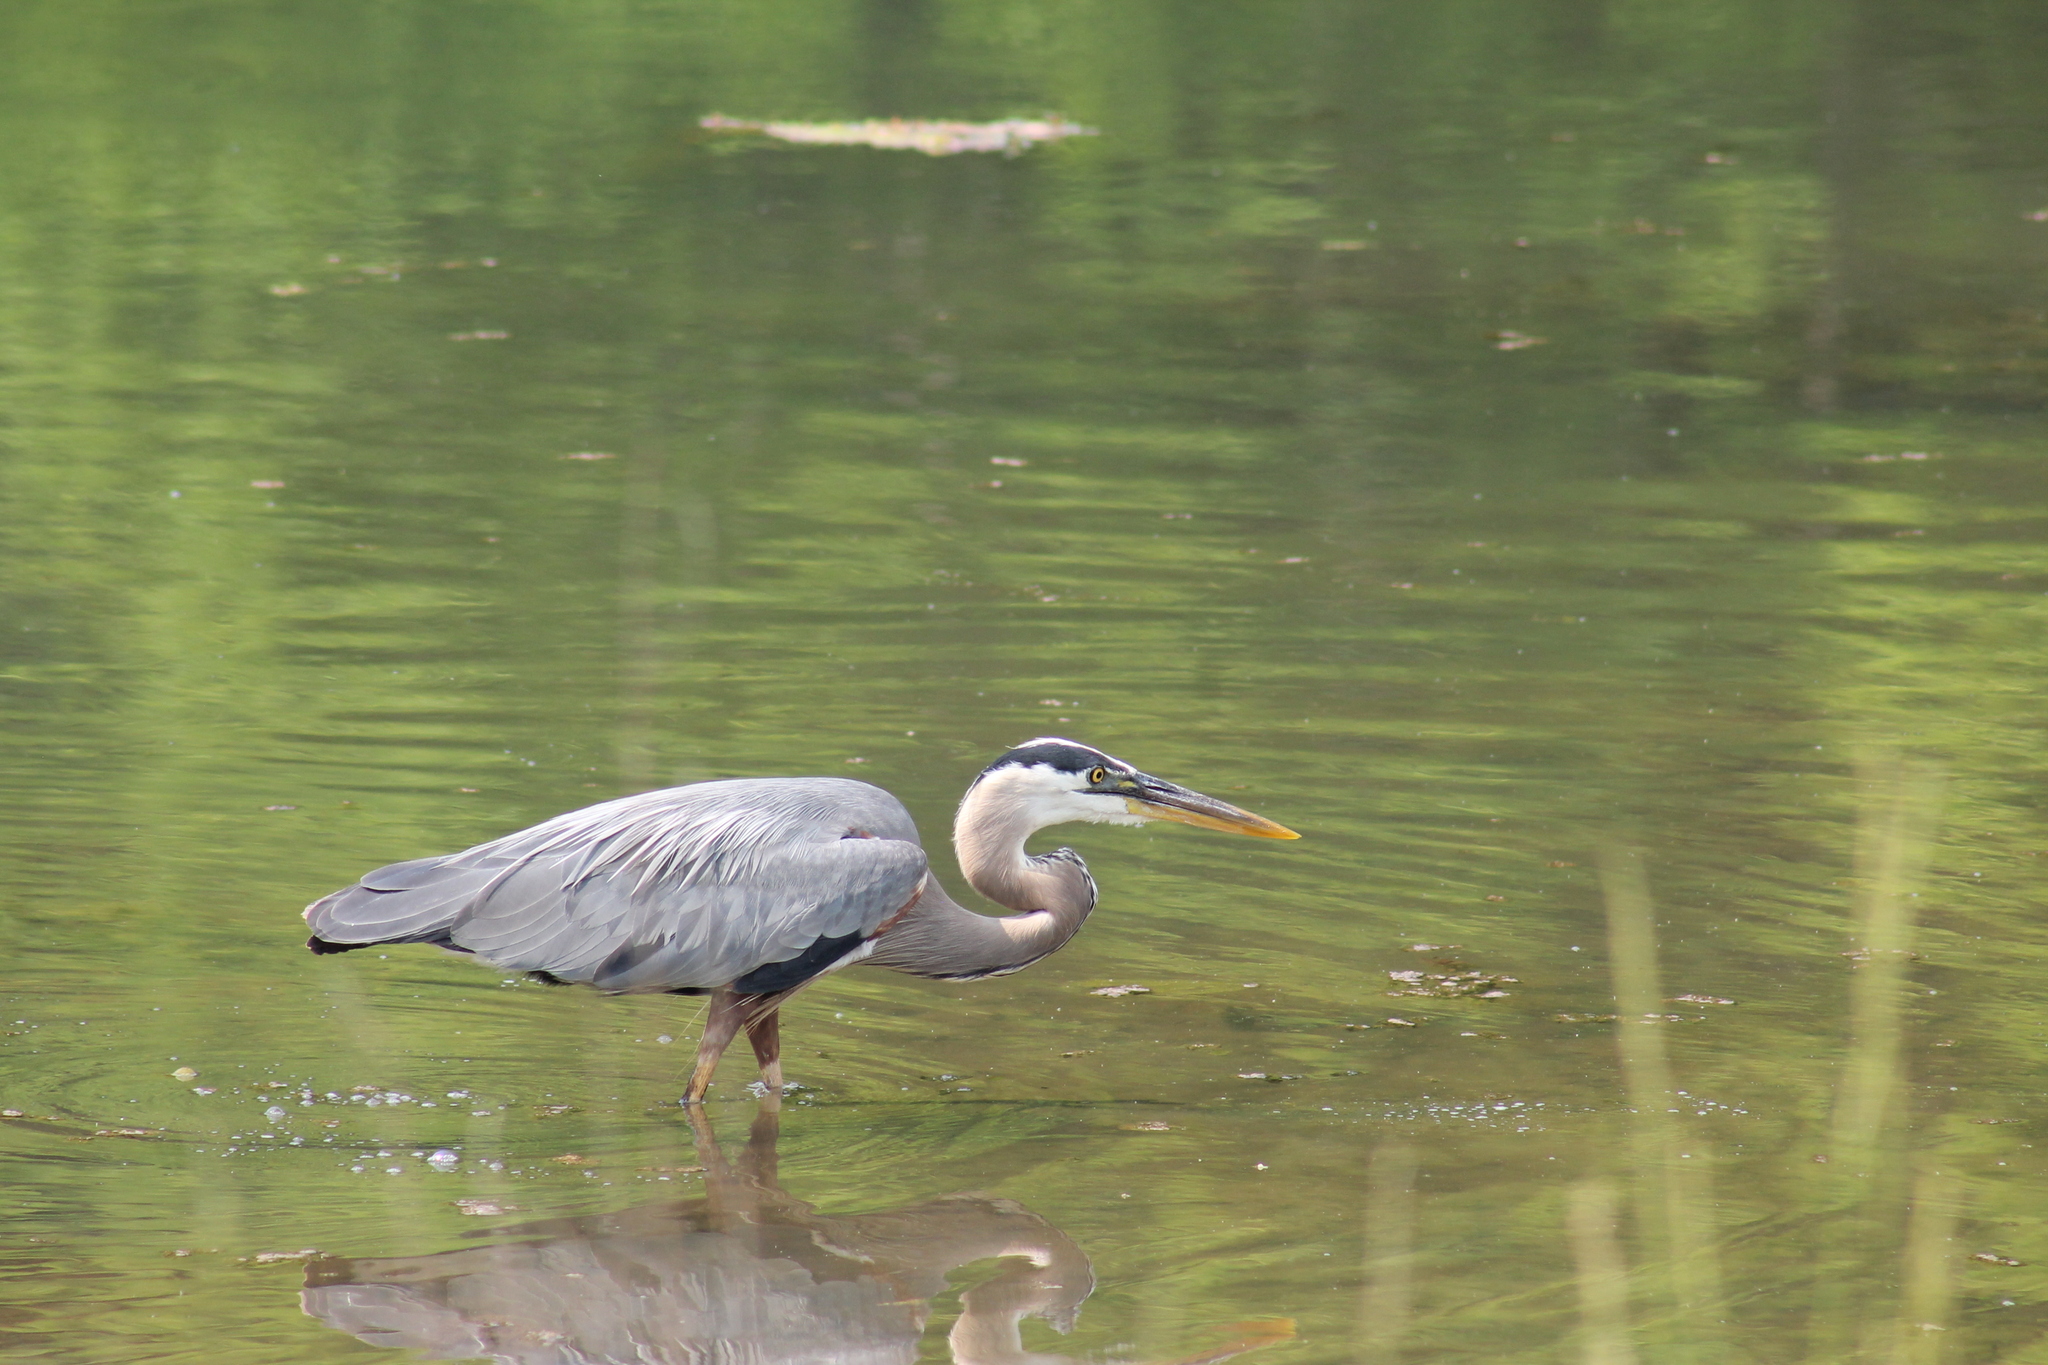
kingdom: Animalia
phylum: Chordata
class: Aves
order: Pelecaniformes
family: Ardeidae
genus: Ardea
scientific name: Ardea herodias
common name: Great blue heron
